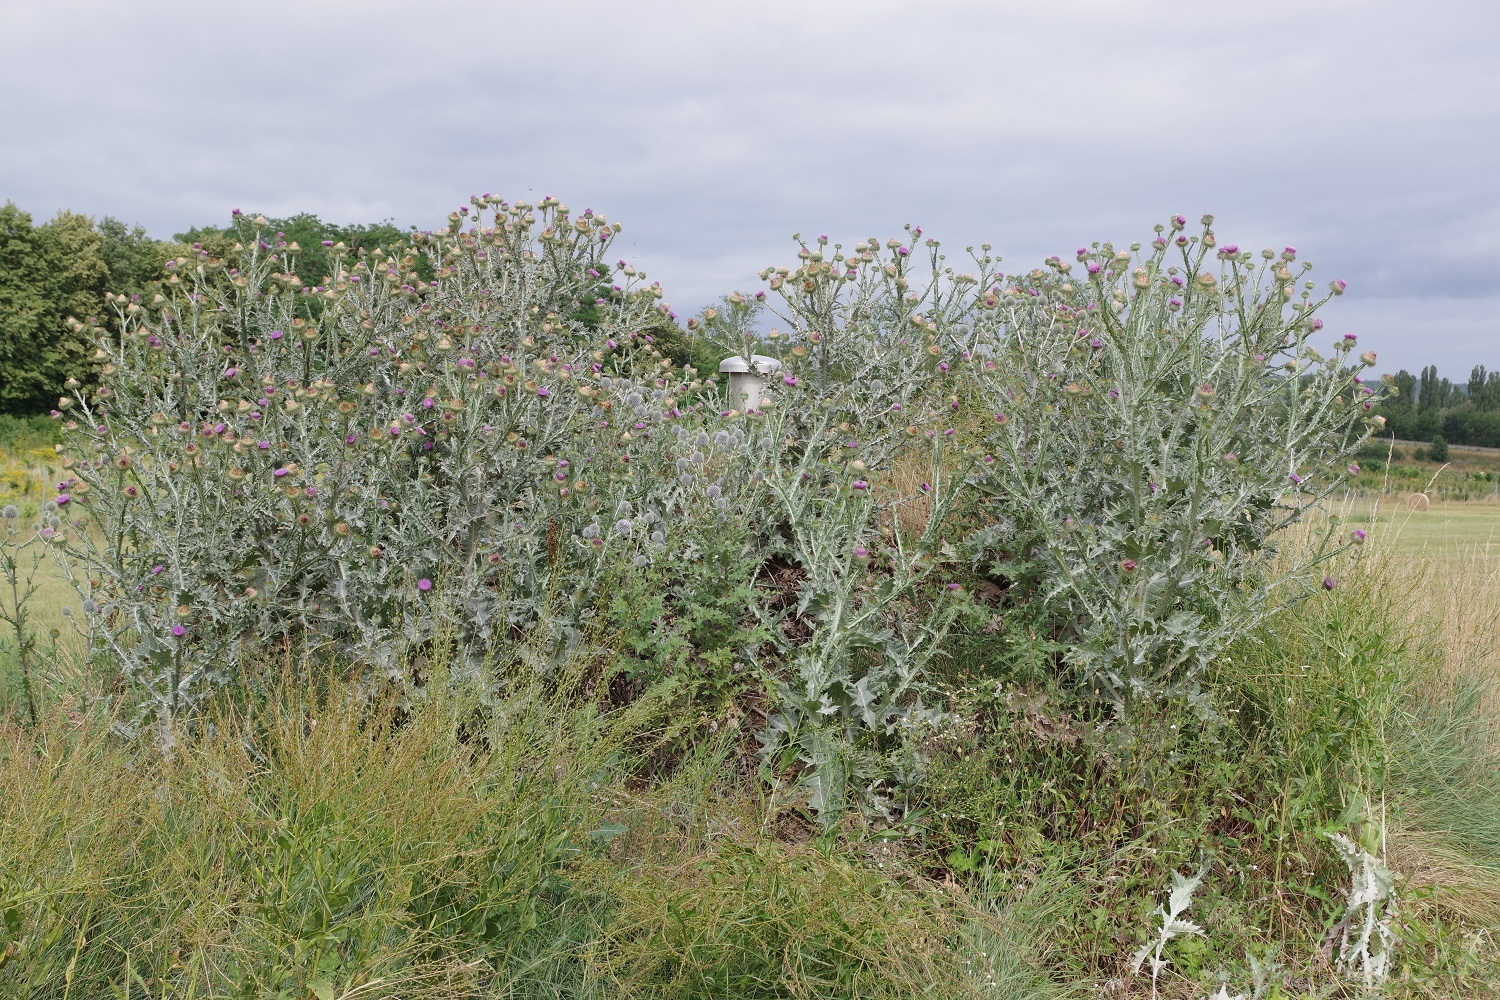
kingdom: Plantae
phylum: Tracheophyta
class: Magnoliopsida
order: Asterales
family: Asteraceae
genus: Onopordum
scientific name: Onopordum acanthium
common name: Scotch thistle
